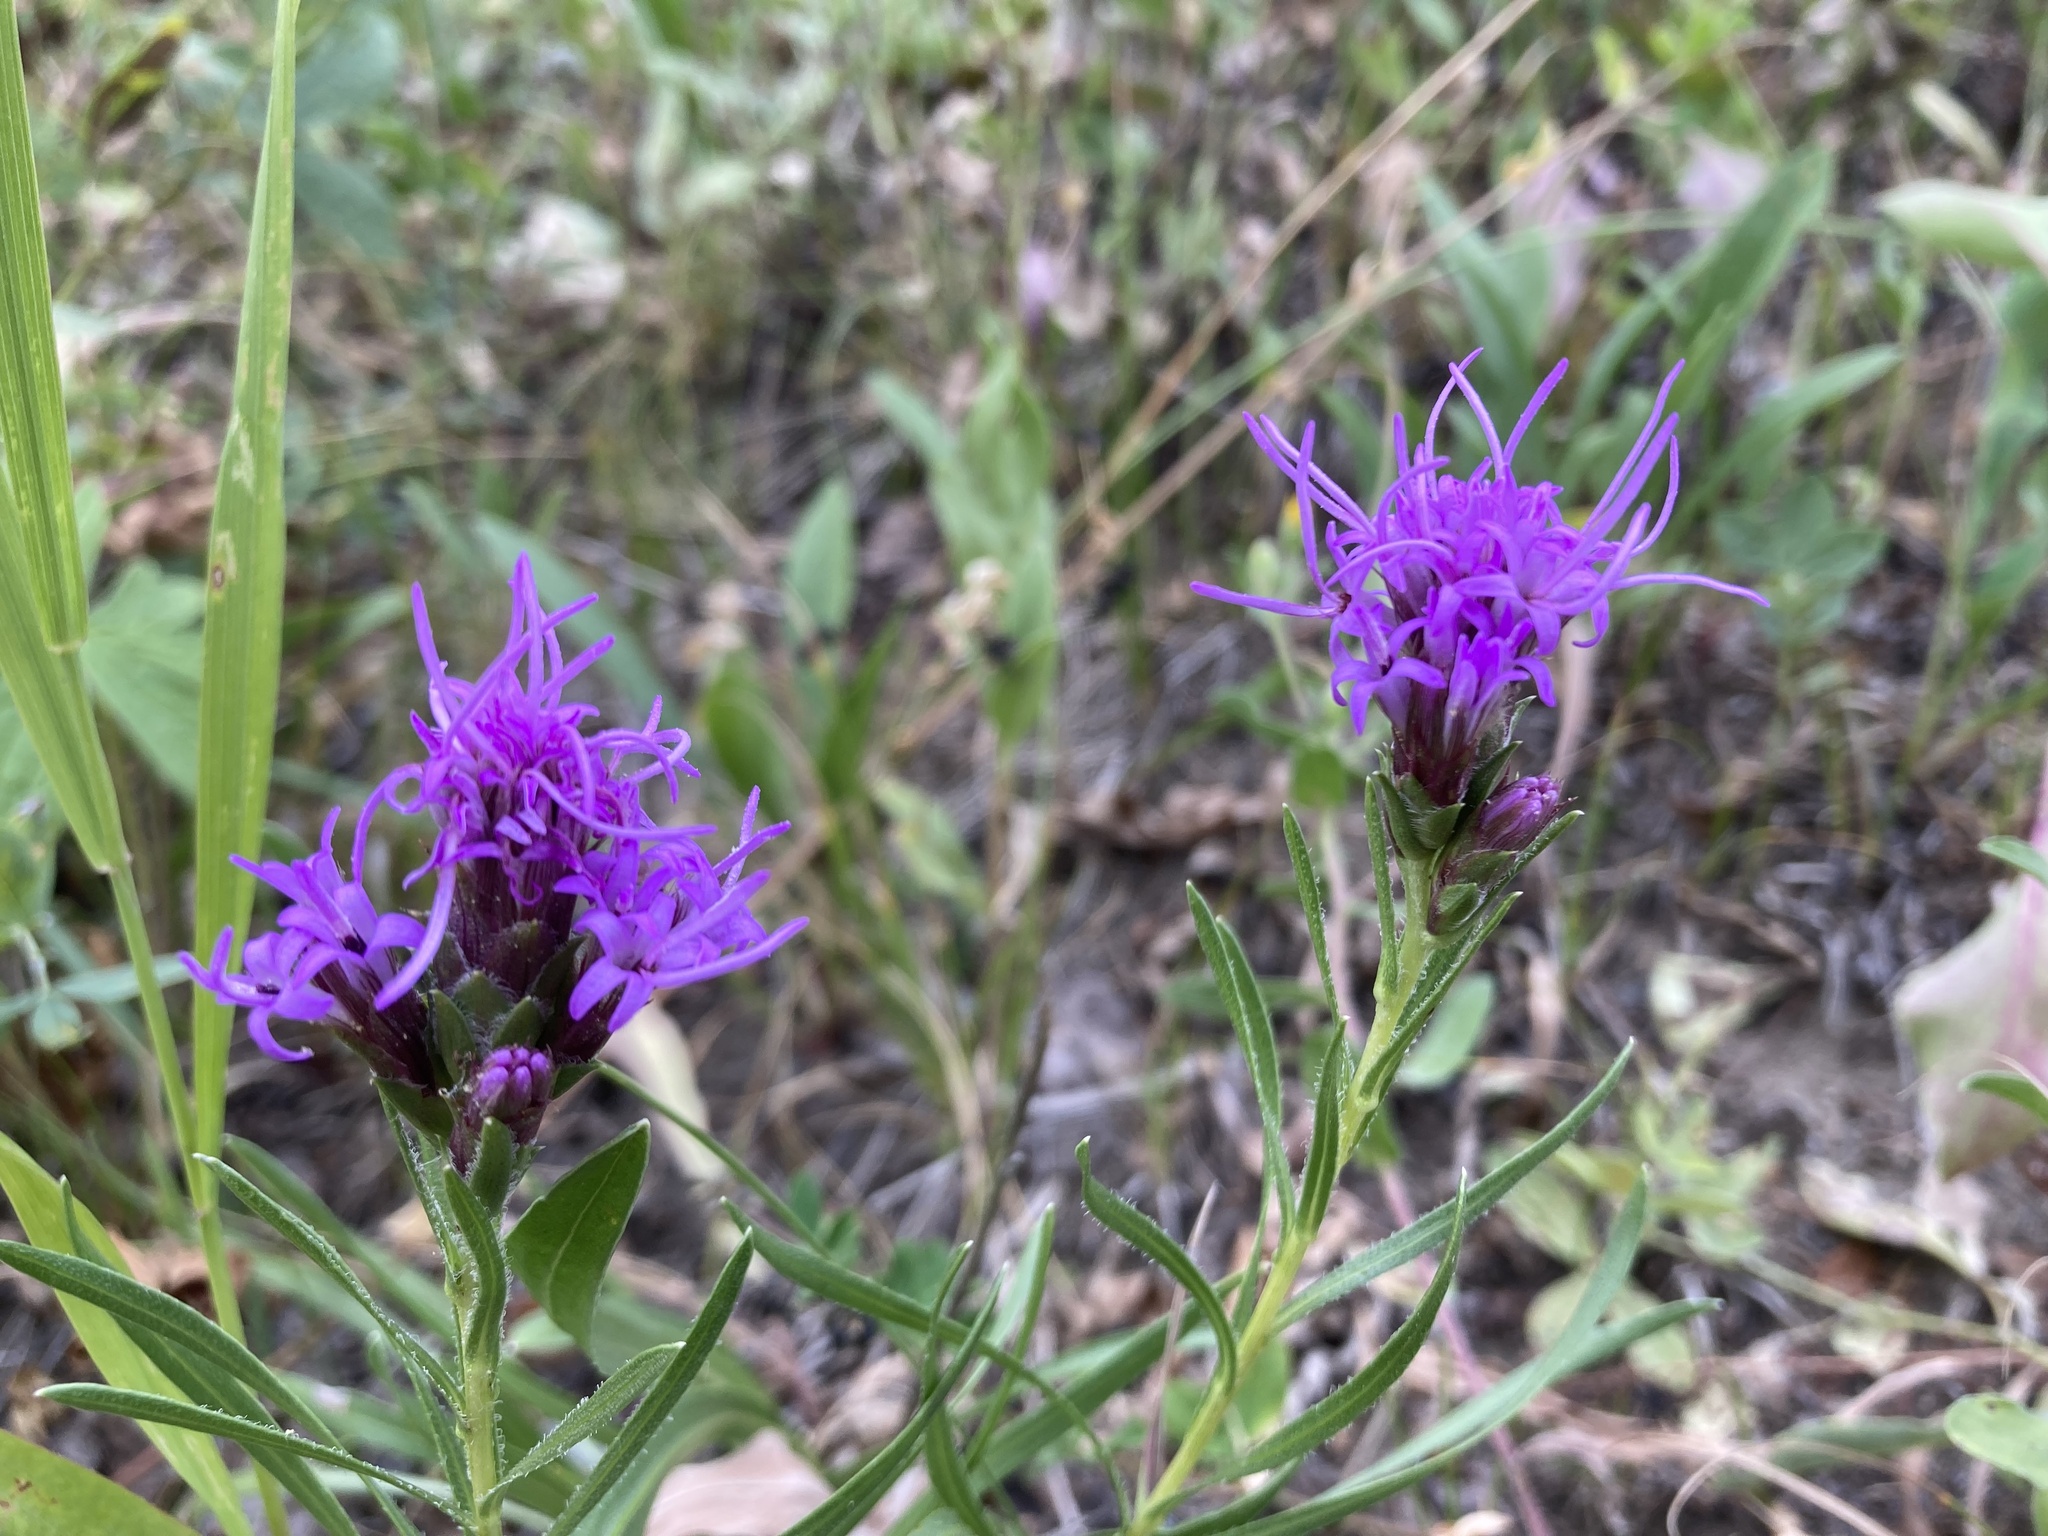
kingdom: Plantae
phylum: Tracheophyta
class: Magnoliopsida
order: Asterales
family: Asteraceae
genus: Liatris
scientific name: Liatris punctata
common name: Dotted gayfeather
